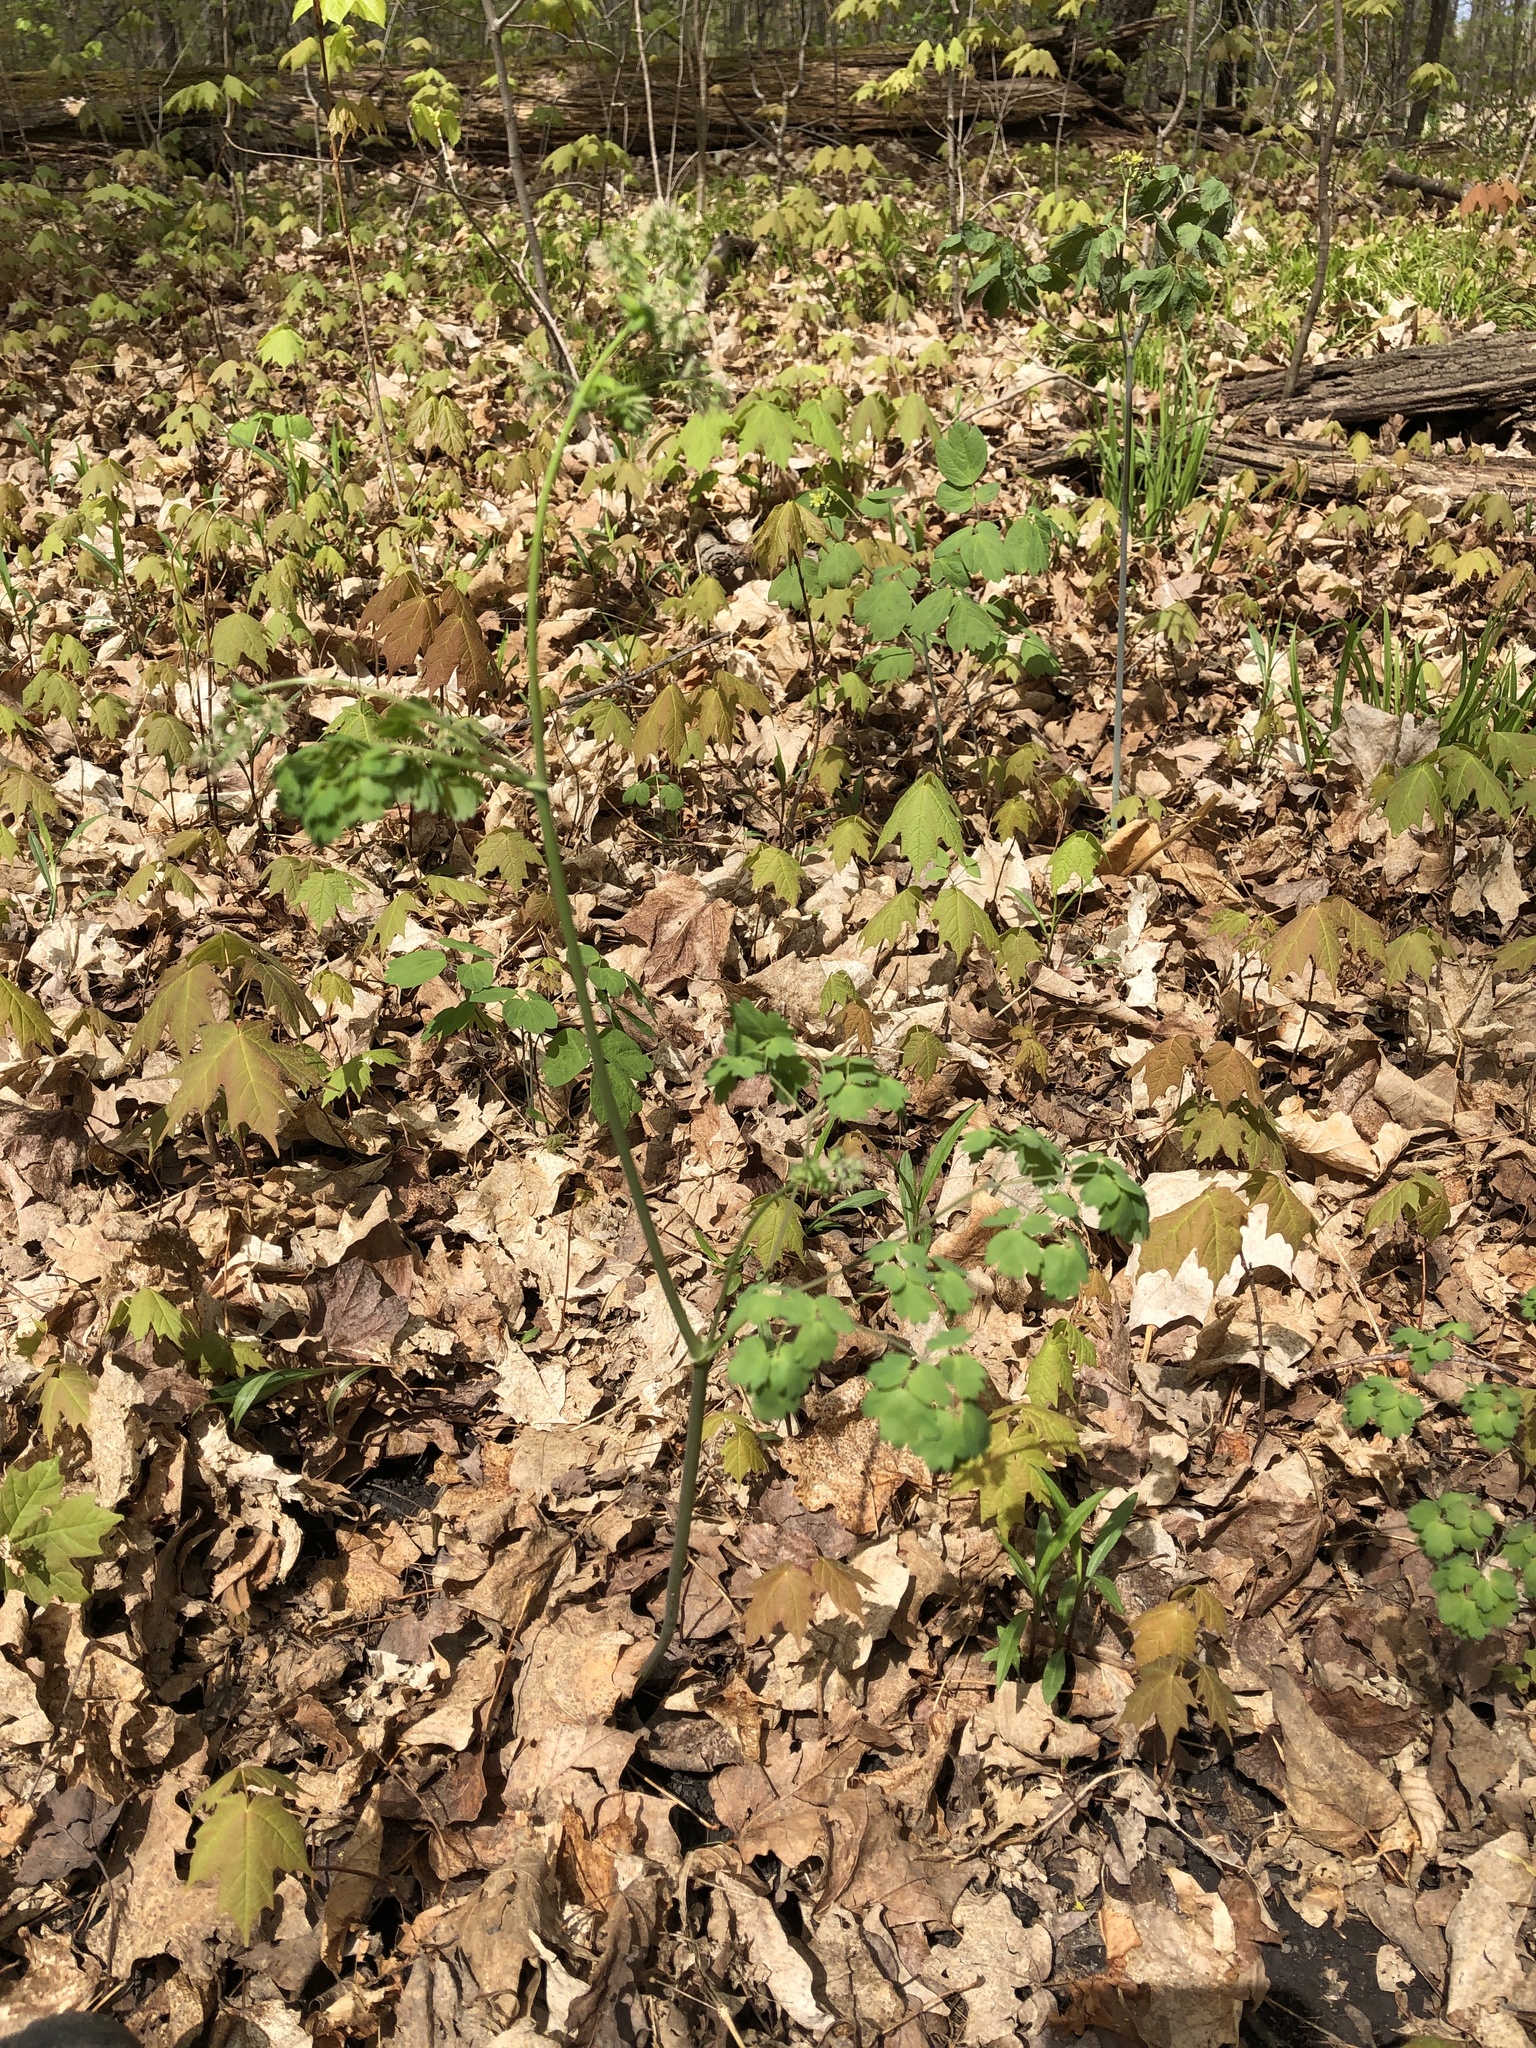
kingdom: Plantae
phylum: Tracheophyta
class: Magnoliopsida
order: Ranunculales
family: Ranunculaceae
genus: Thalictrum
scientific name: Thalictrum dioicum
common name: Early meadow-rue
